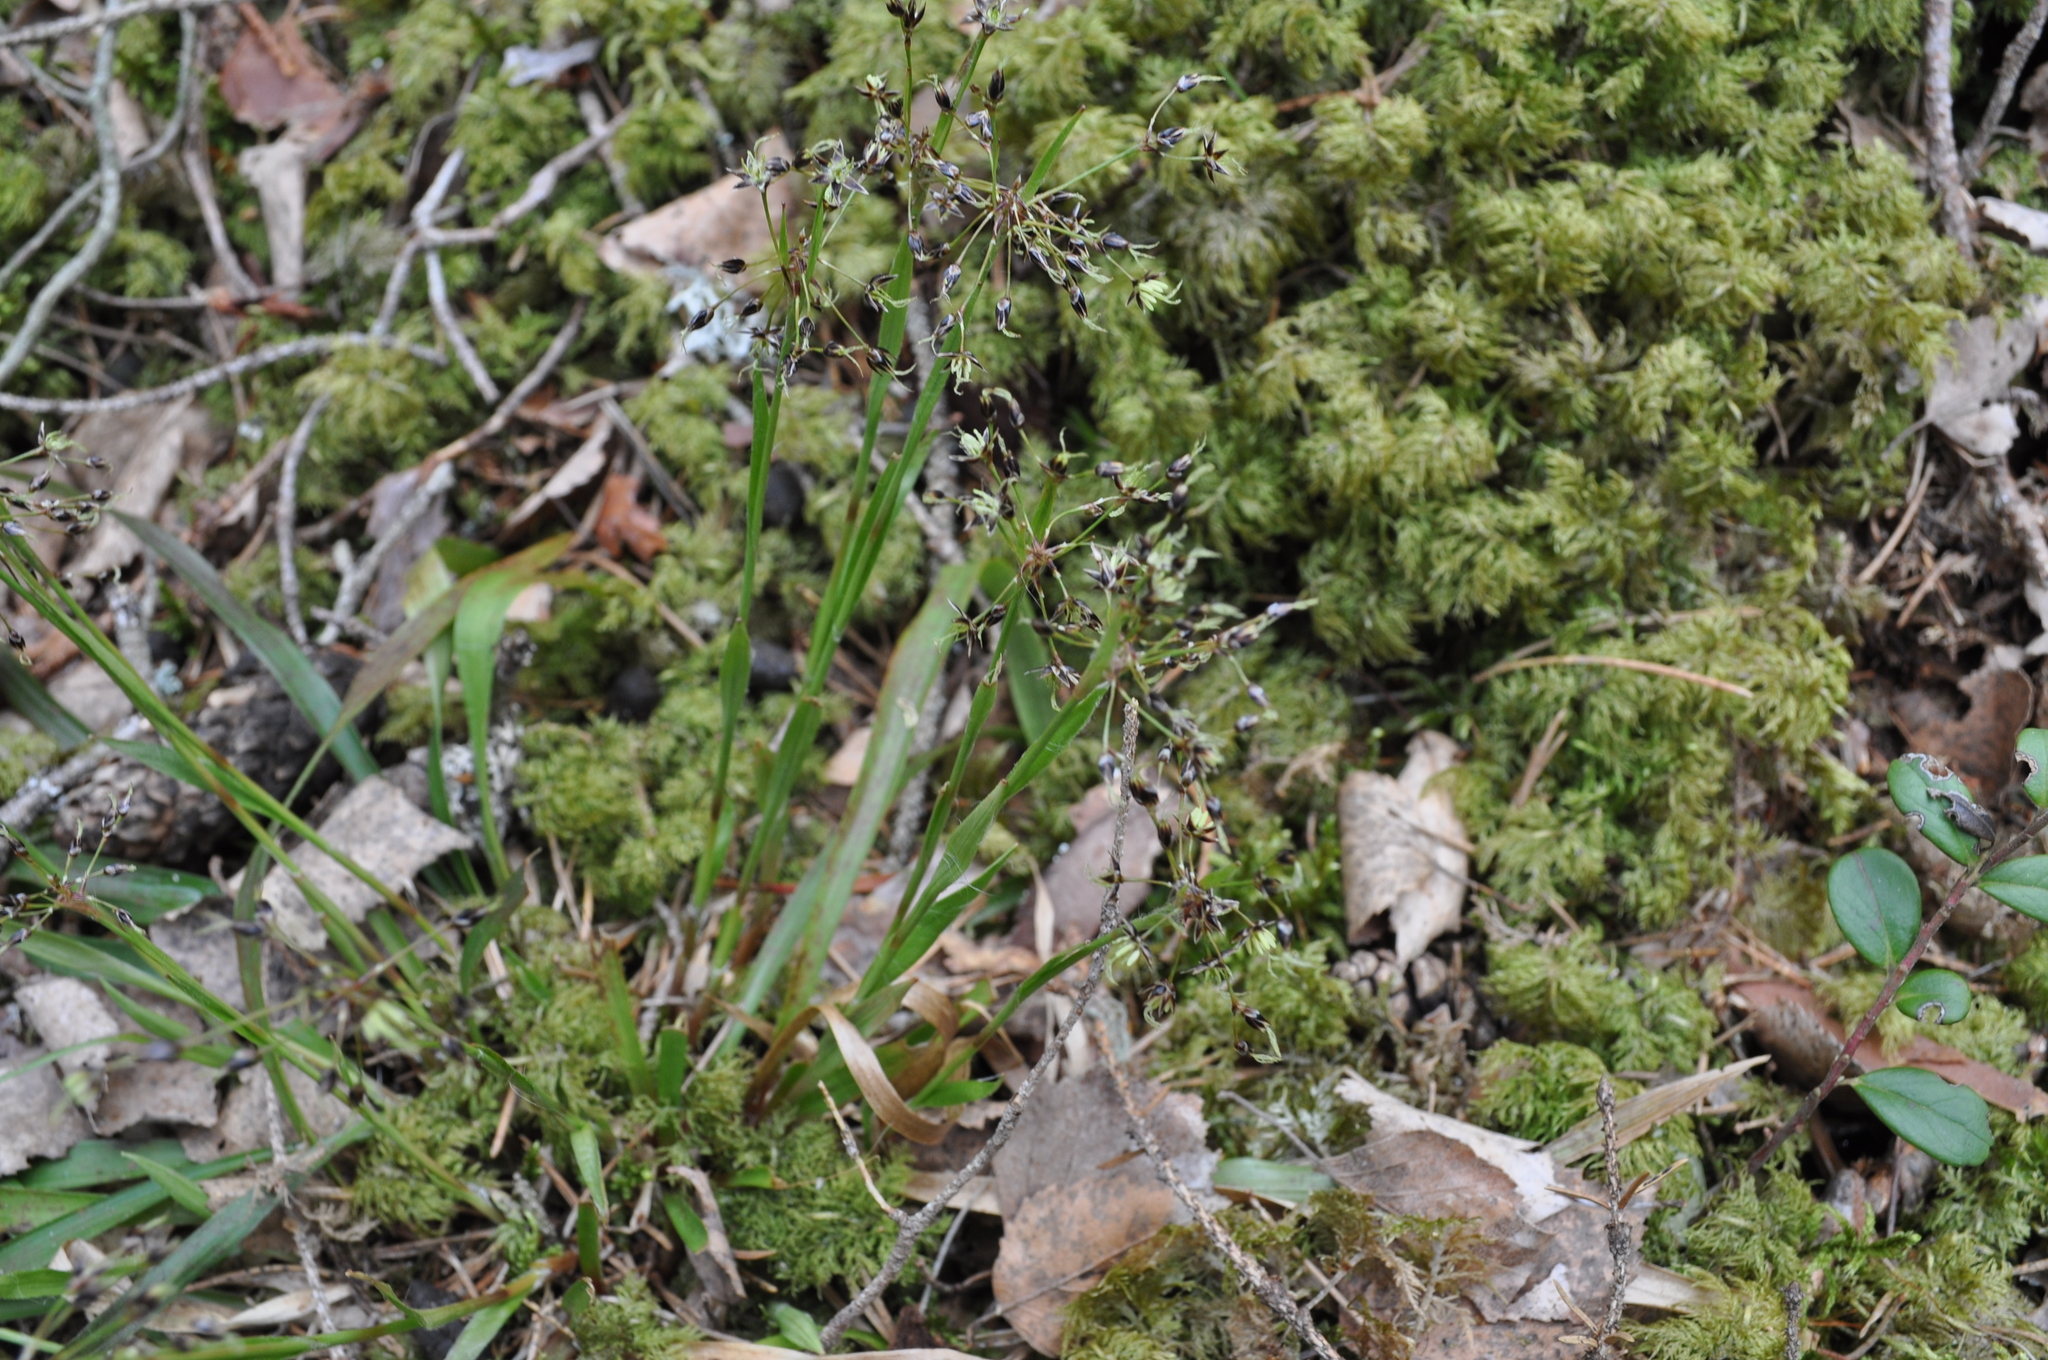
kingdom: Plantae
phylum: Tracheophyta
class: Liliopsida
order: Poales
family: Juncaceae
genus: Luzula
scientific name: Luzula pilosa
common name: Hairy wood-rush
